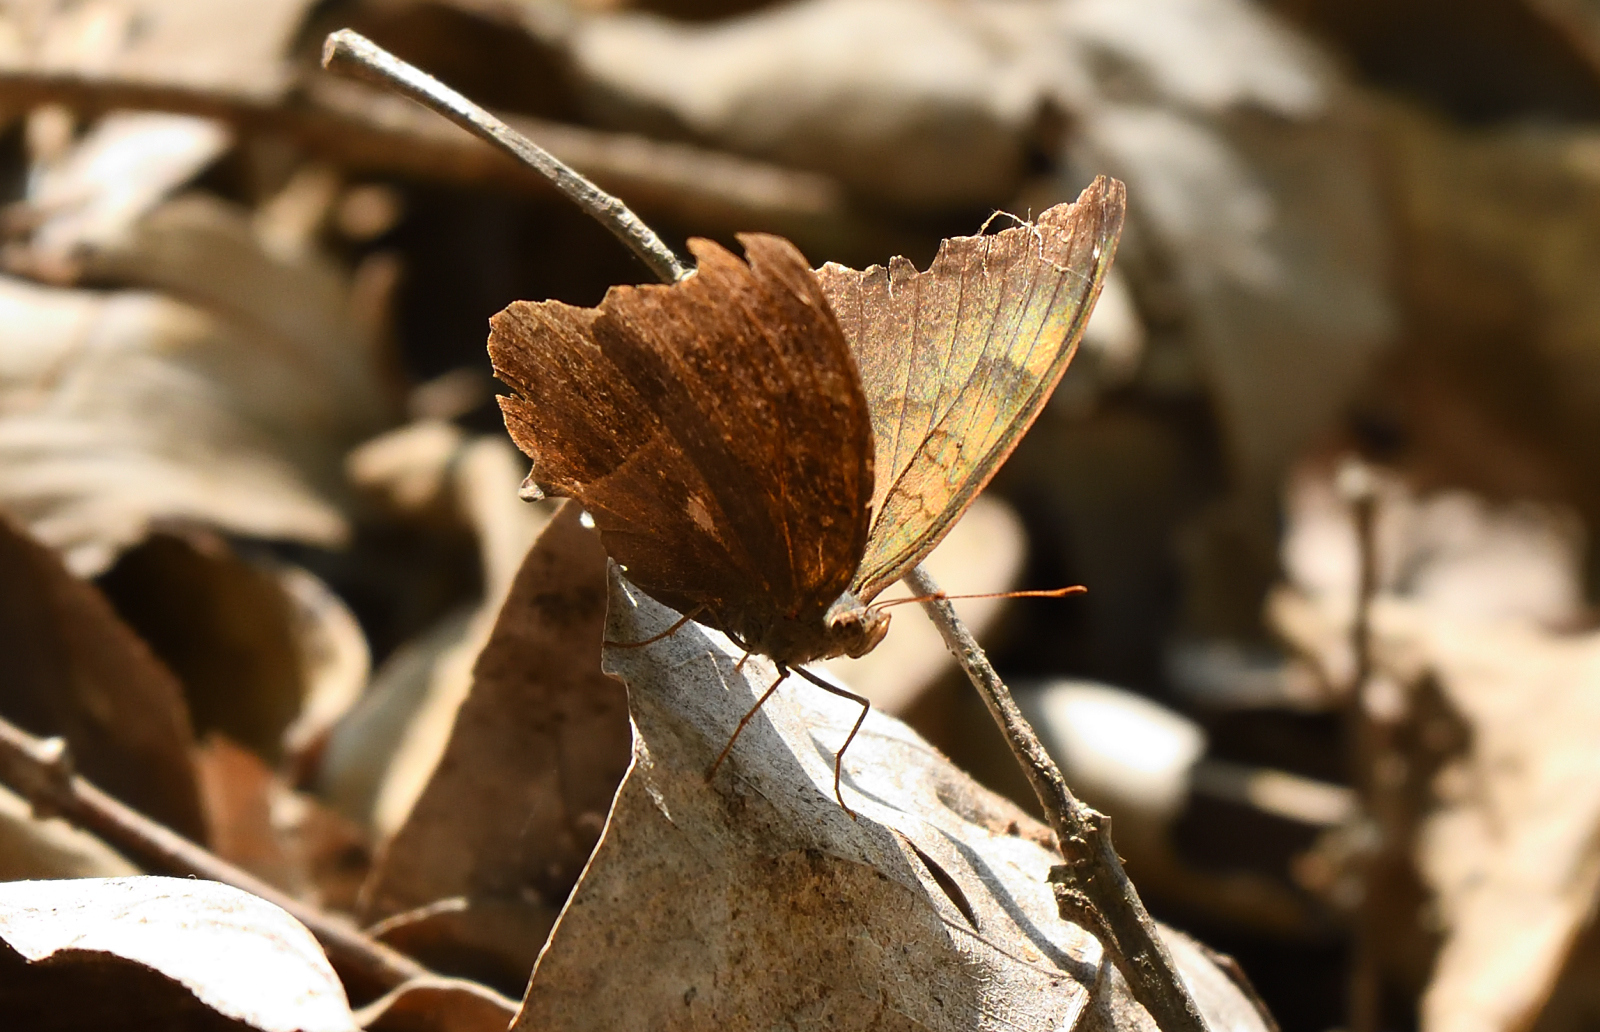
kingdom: Animalia
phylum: Arthropoda
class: Insecta
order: Lepidoptera
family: Nymphalidae
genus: Junonia
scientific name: Junonia iphita
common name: Chocolate pansy
